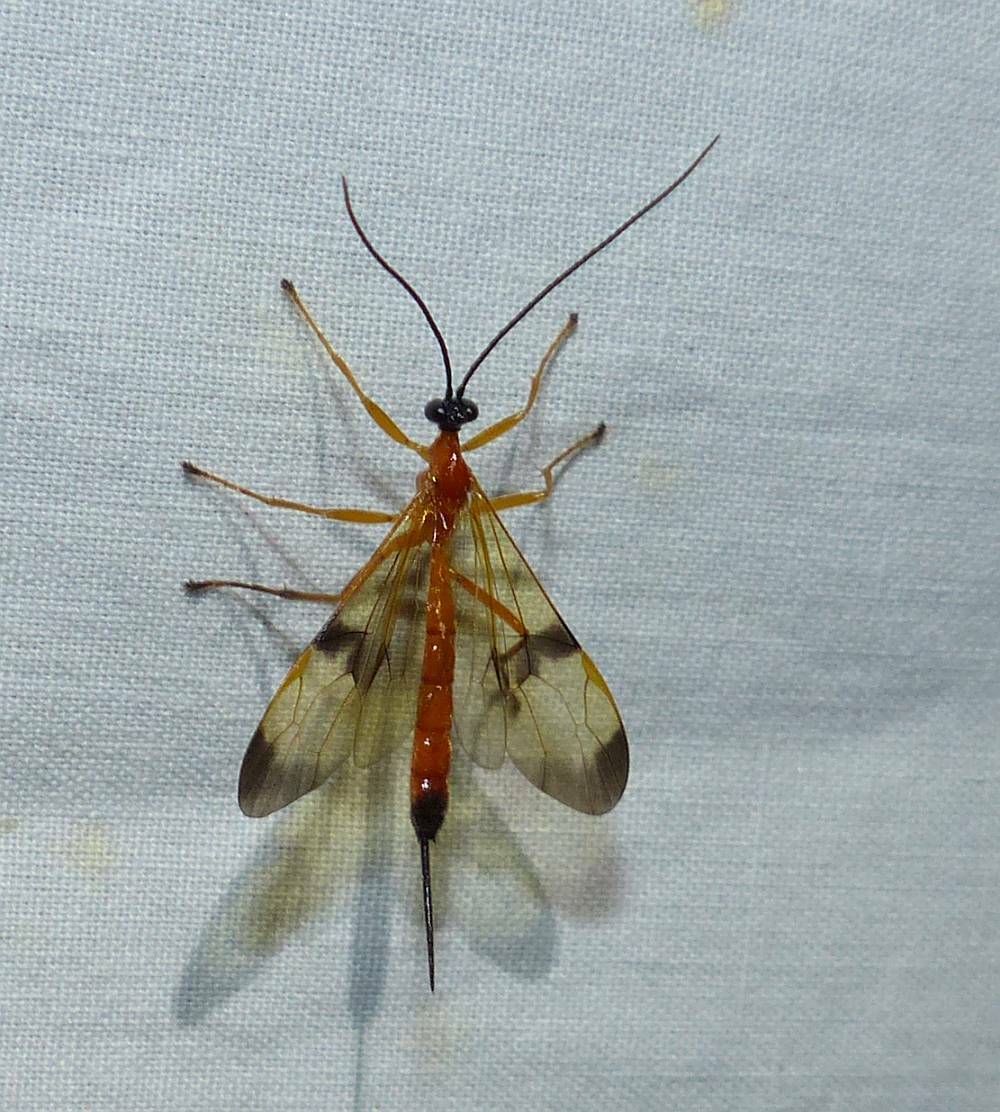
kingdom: Animalia
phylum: Arthropoda
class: Insecta
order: Hymenoptera
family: Ichneumonidae
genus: Acrotaphus
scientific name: Acrotaphus wiltii
